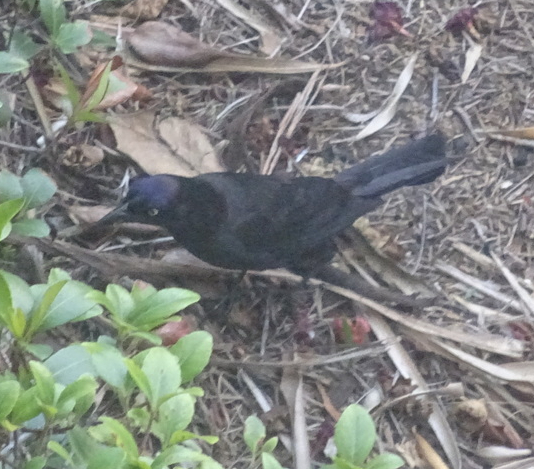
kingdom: Animalia
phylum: Chordata
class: Aves
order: Passeriformes
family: Icteridae
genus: Quiscalus
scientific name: Quiscalus quiscula
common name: Common grackle
